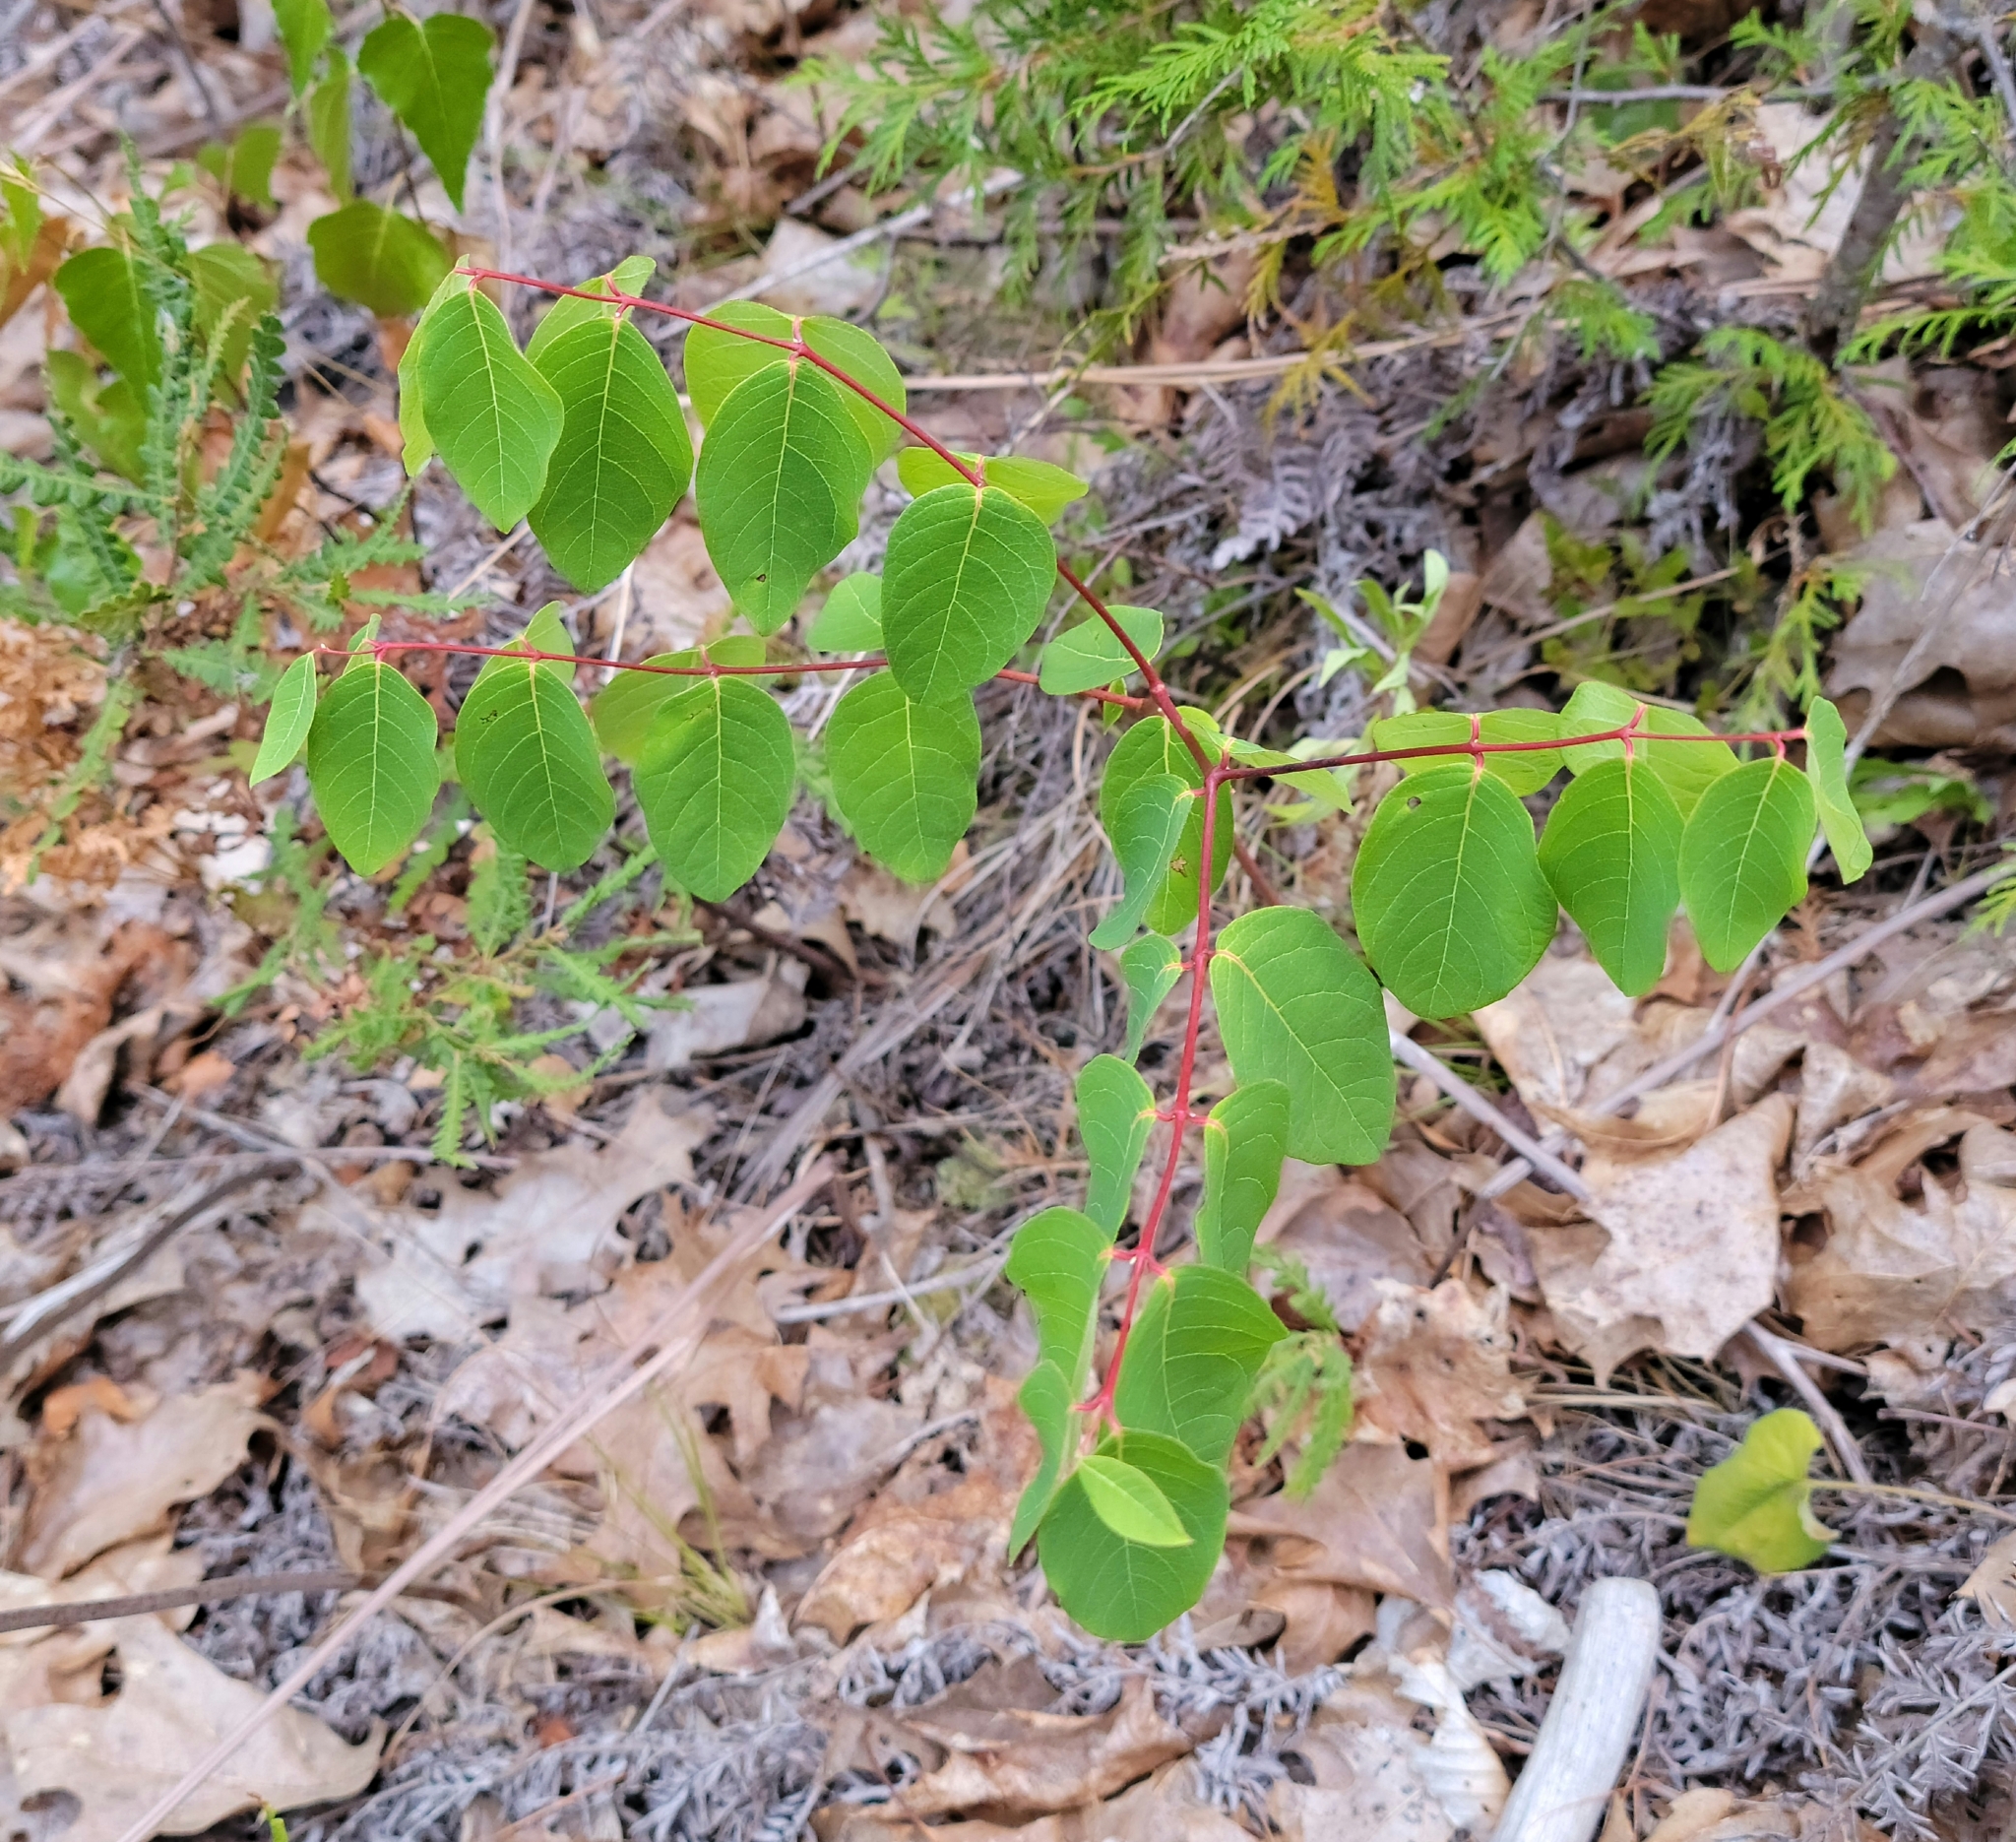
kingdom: Plantae
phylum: Tracheophyta
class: Magnoliopsida
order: Gentianales
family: Apocynaceae
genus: Apocynum
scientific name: Apocynum androsaemifolium
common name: Spreading dogbane
